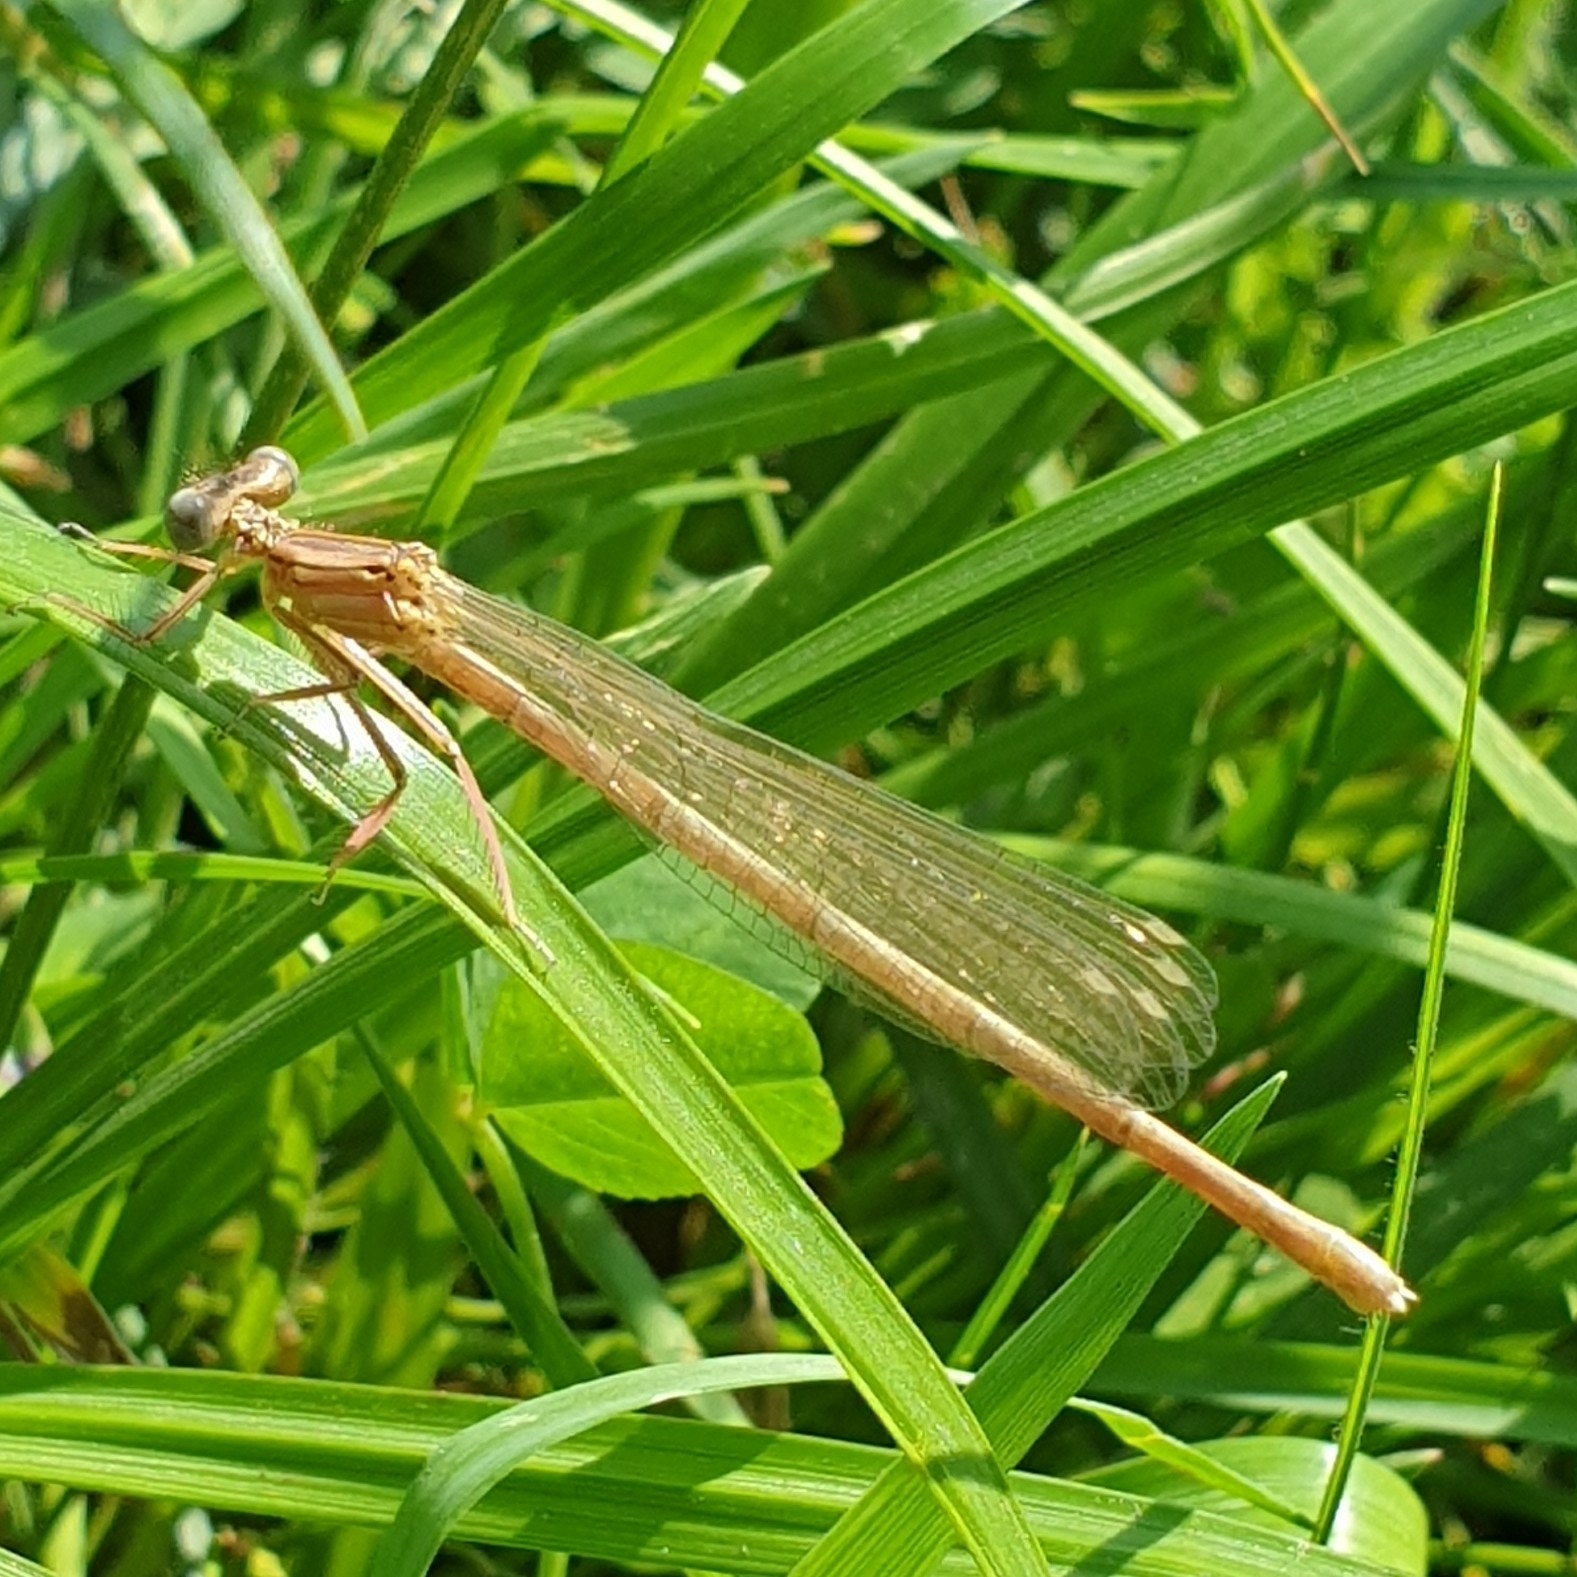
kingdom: Animalia
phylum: Arthropoda
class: Insecta
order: Odonata
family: Platycnemididae
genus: Platycnemis
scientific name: Platycnemis pennipes
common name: White-legged damselfly
